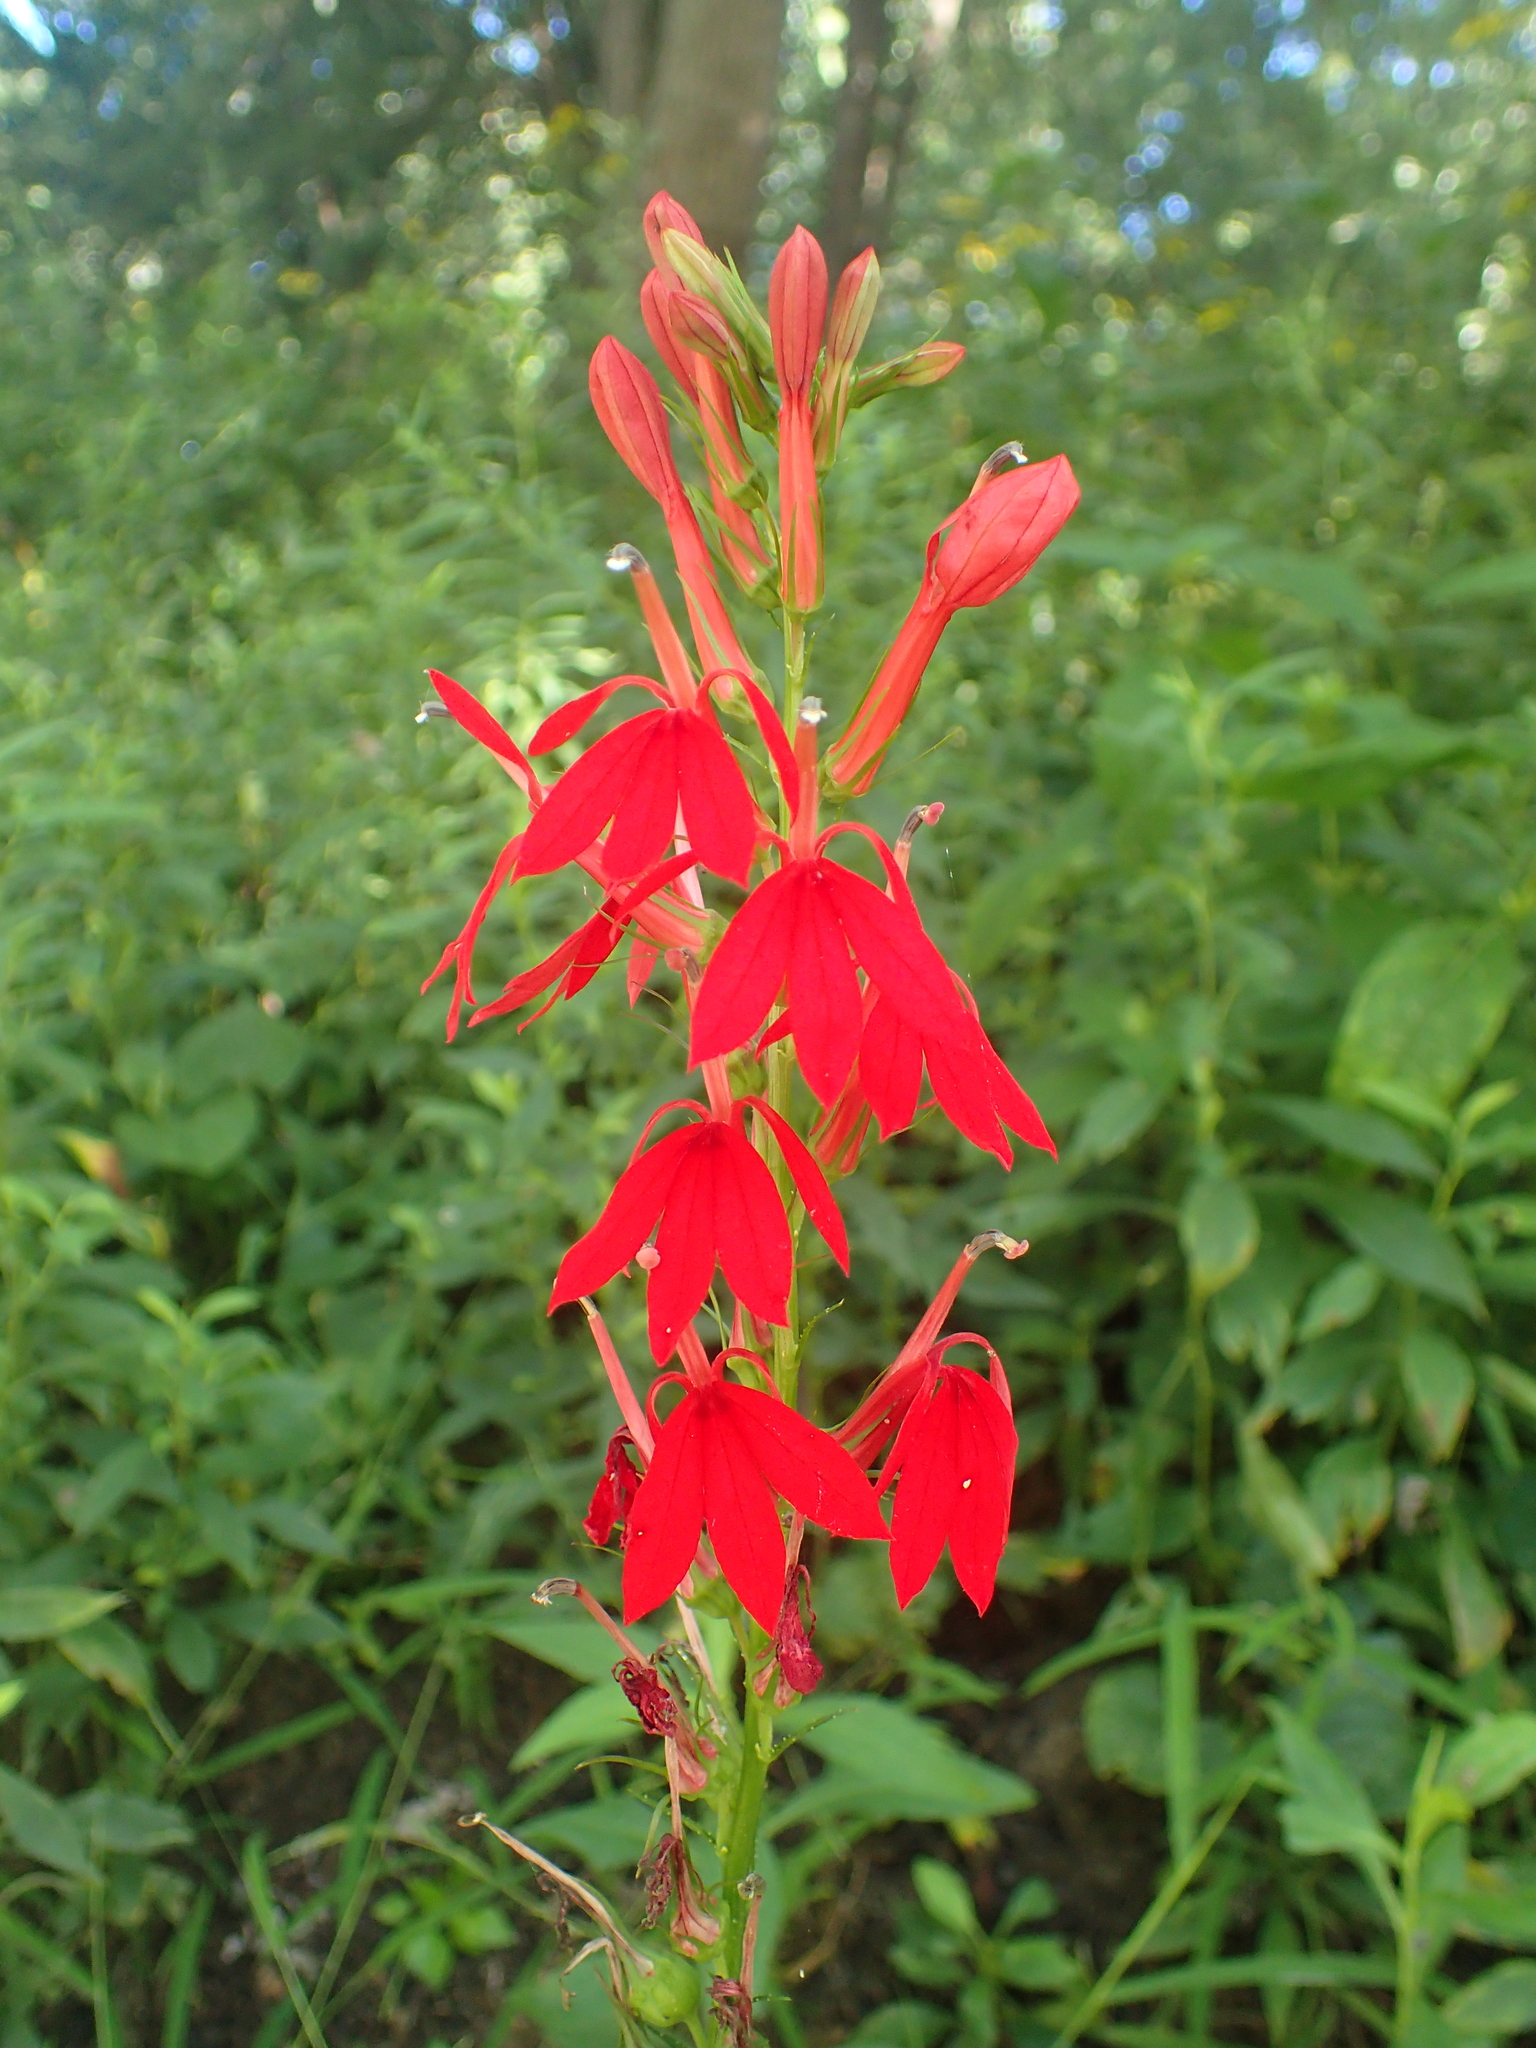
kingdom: Plantae
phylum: Tracheophyta
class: Magnoliopsida
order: Asterales
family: Campanulaceae
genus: Lobelia
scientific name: Lobelia cardinalis
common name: Cardinal flower
